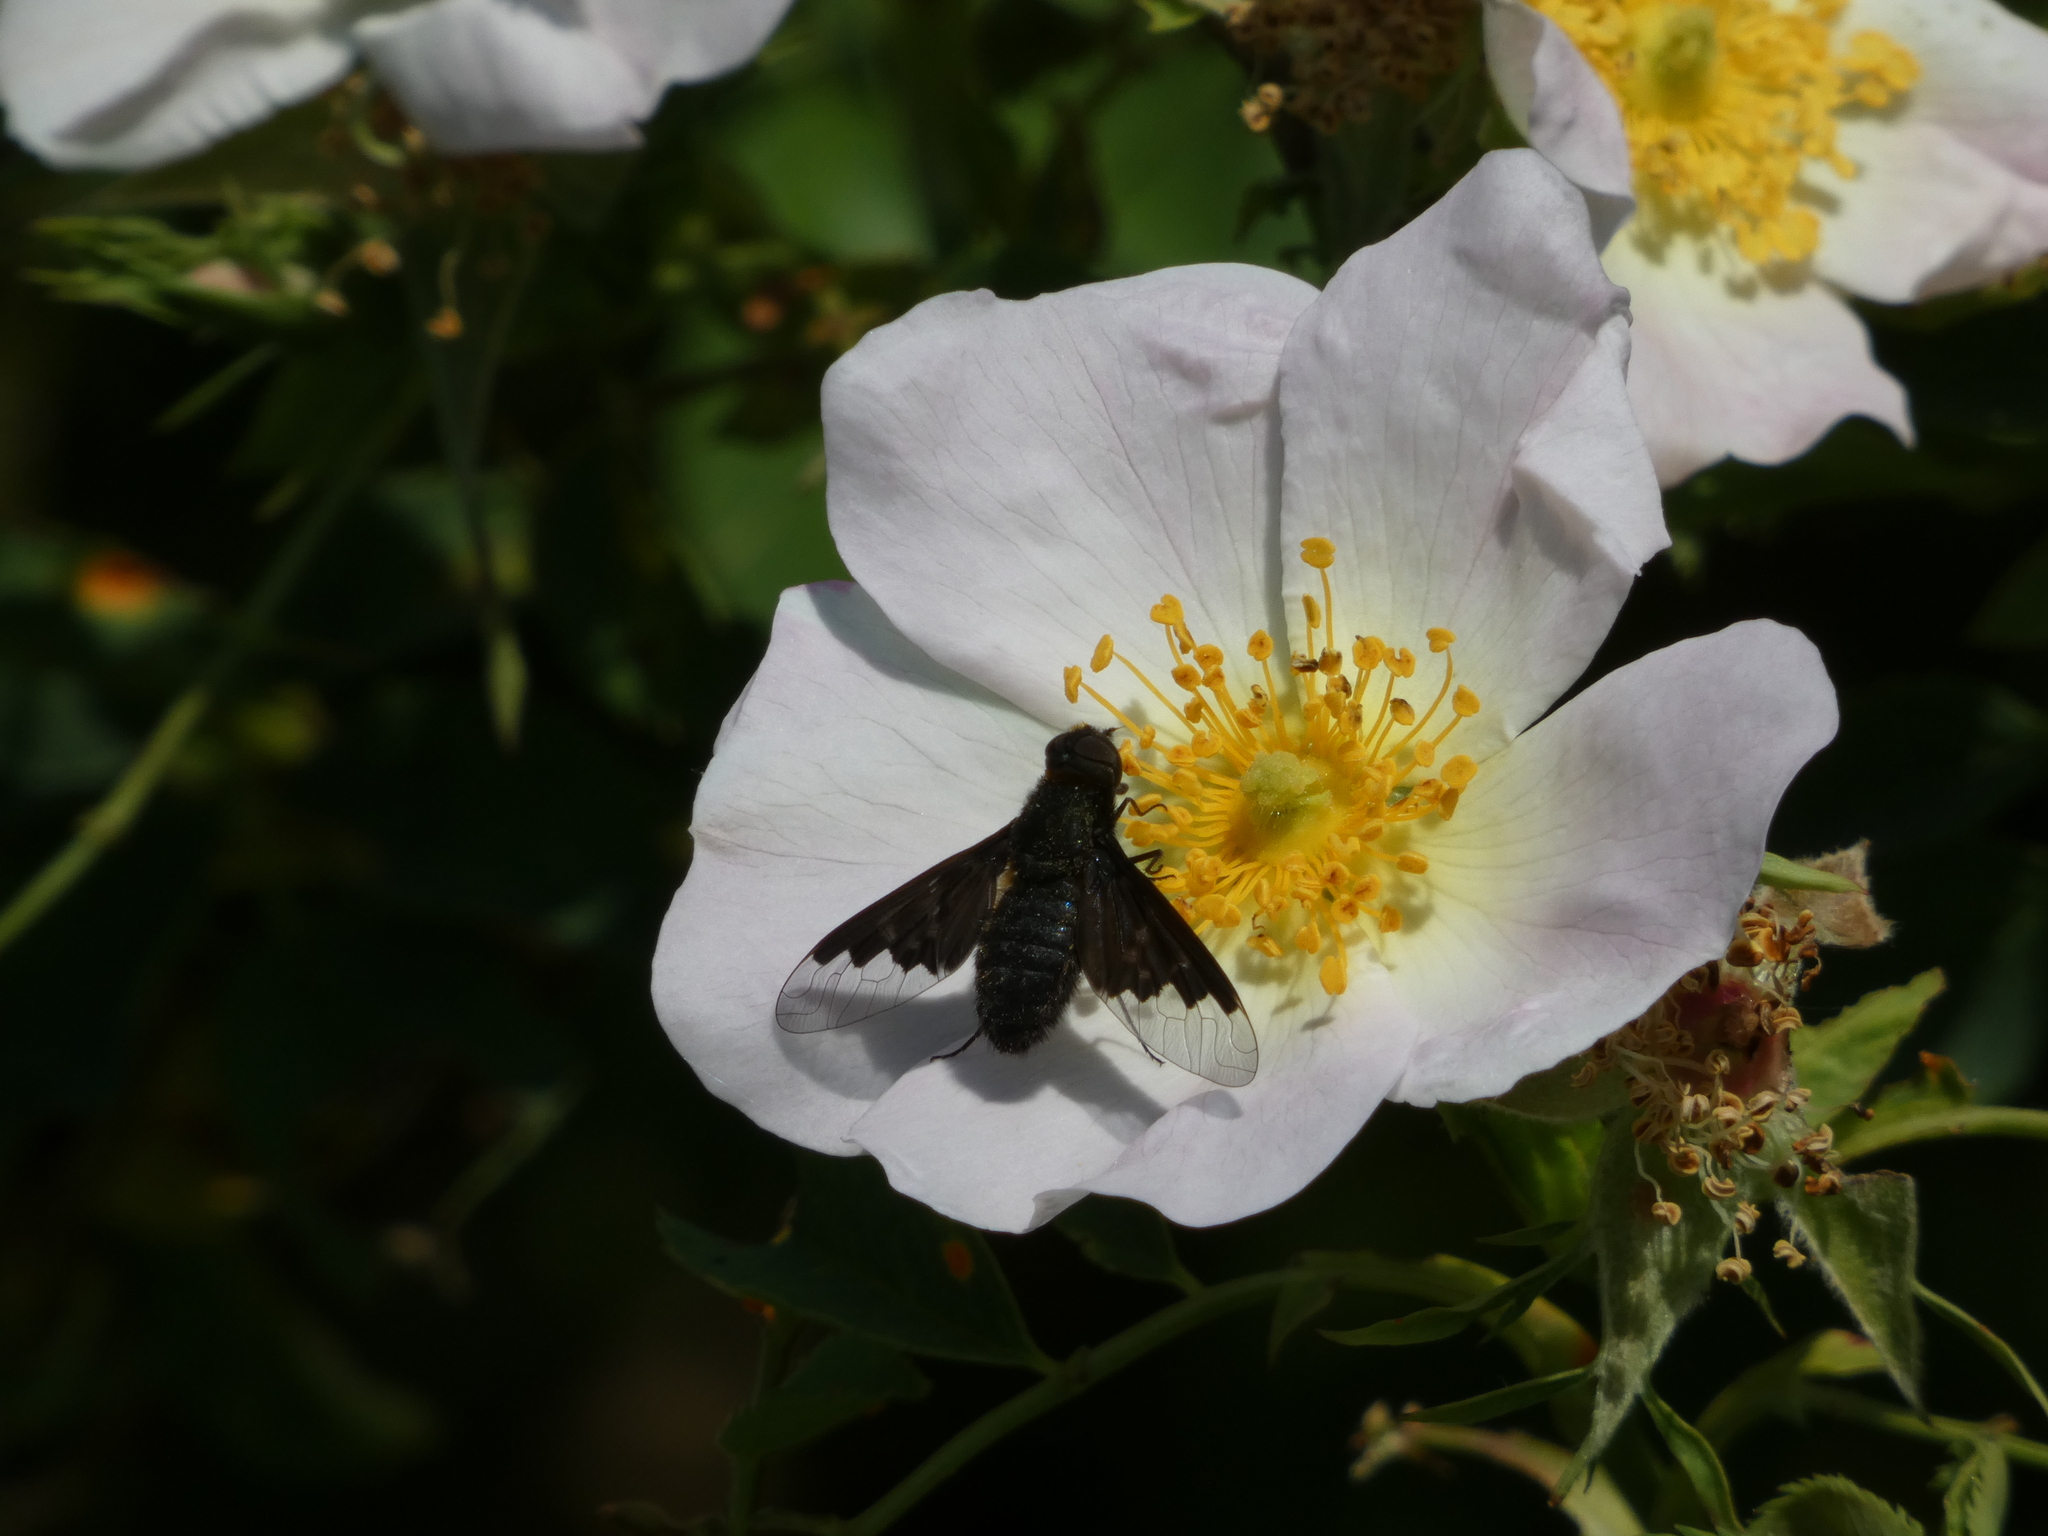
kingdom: Animalia
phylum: Arthropoda
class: Insecta
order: Diptera
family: Bombyliidae
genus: Hemipenthes
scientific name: Hemipenthes morio
